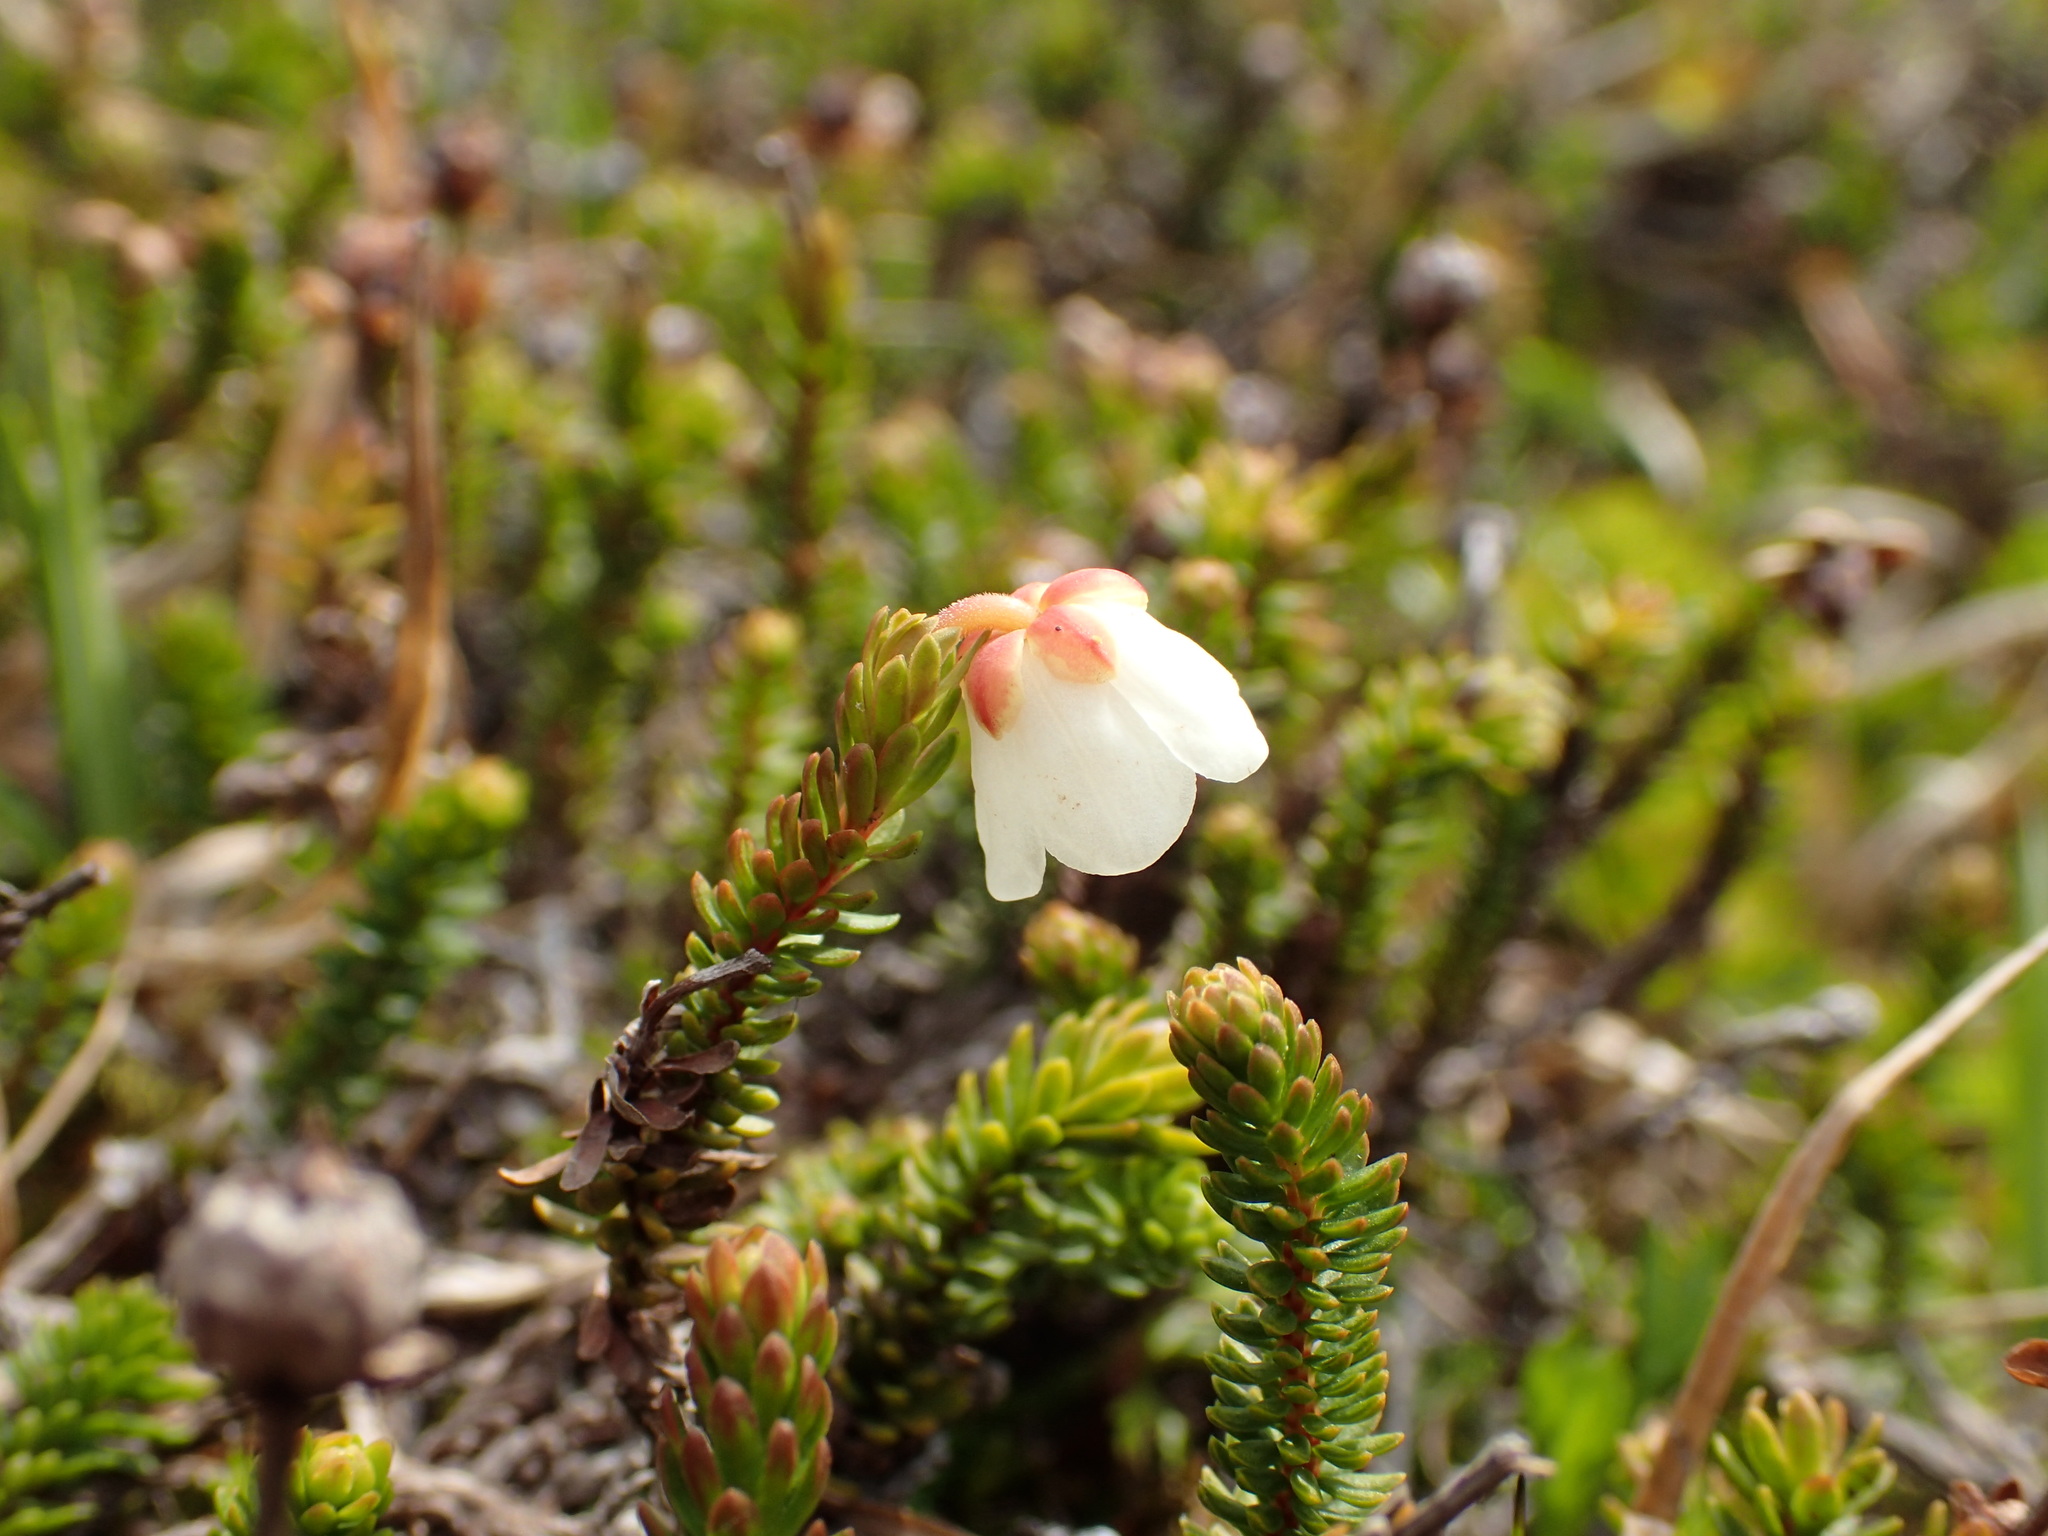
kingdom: Plantae
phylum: Tracheophyta
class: Magnoliopsida
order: Ericales
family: Ericaceae
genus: Harrimanella
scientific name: Harrimanella stelleriana
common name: Alaska bell heather
